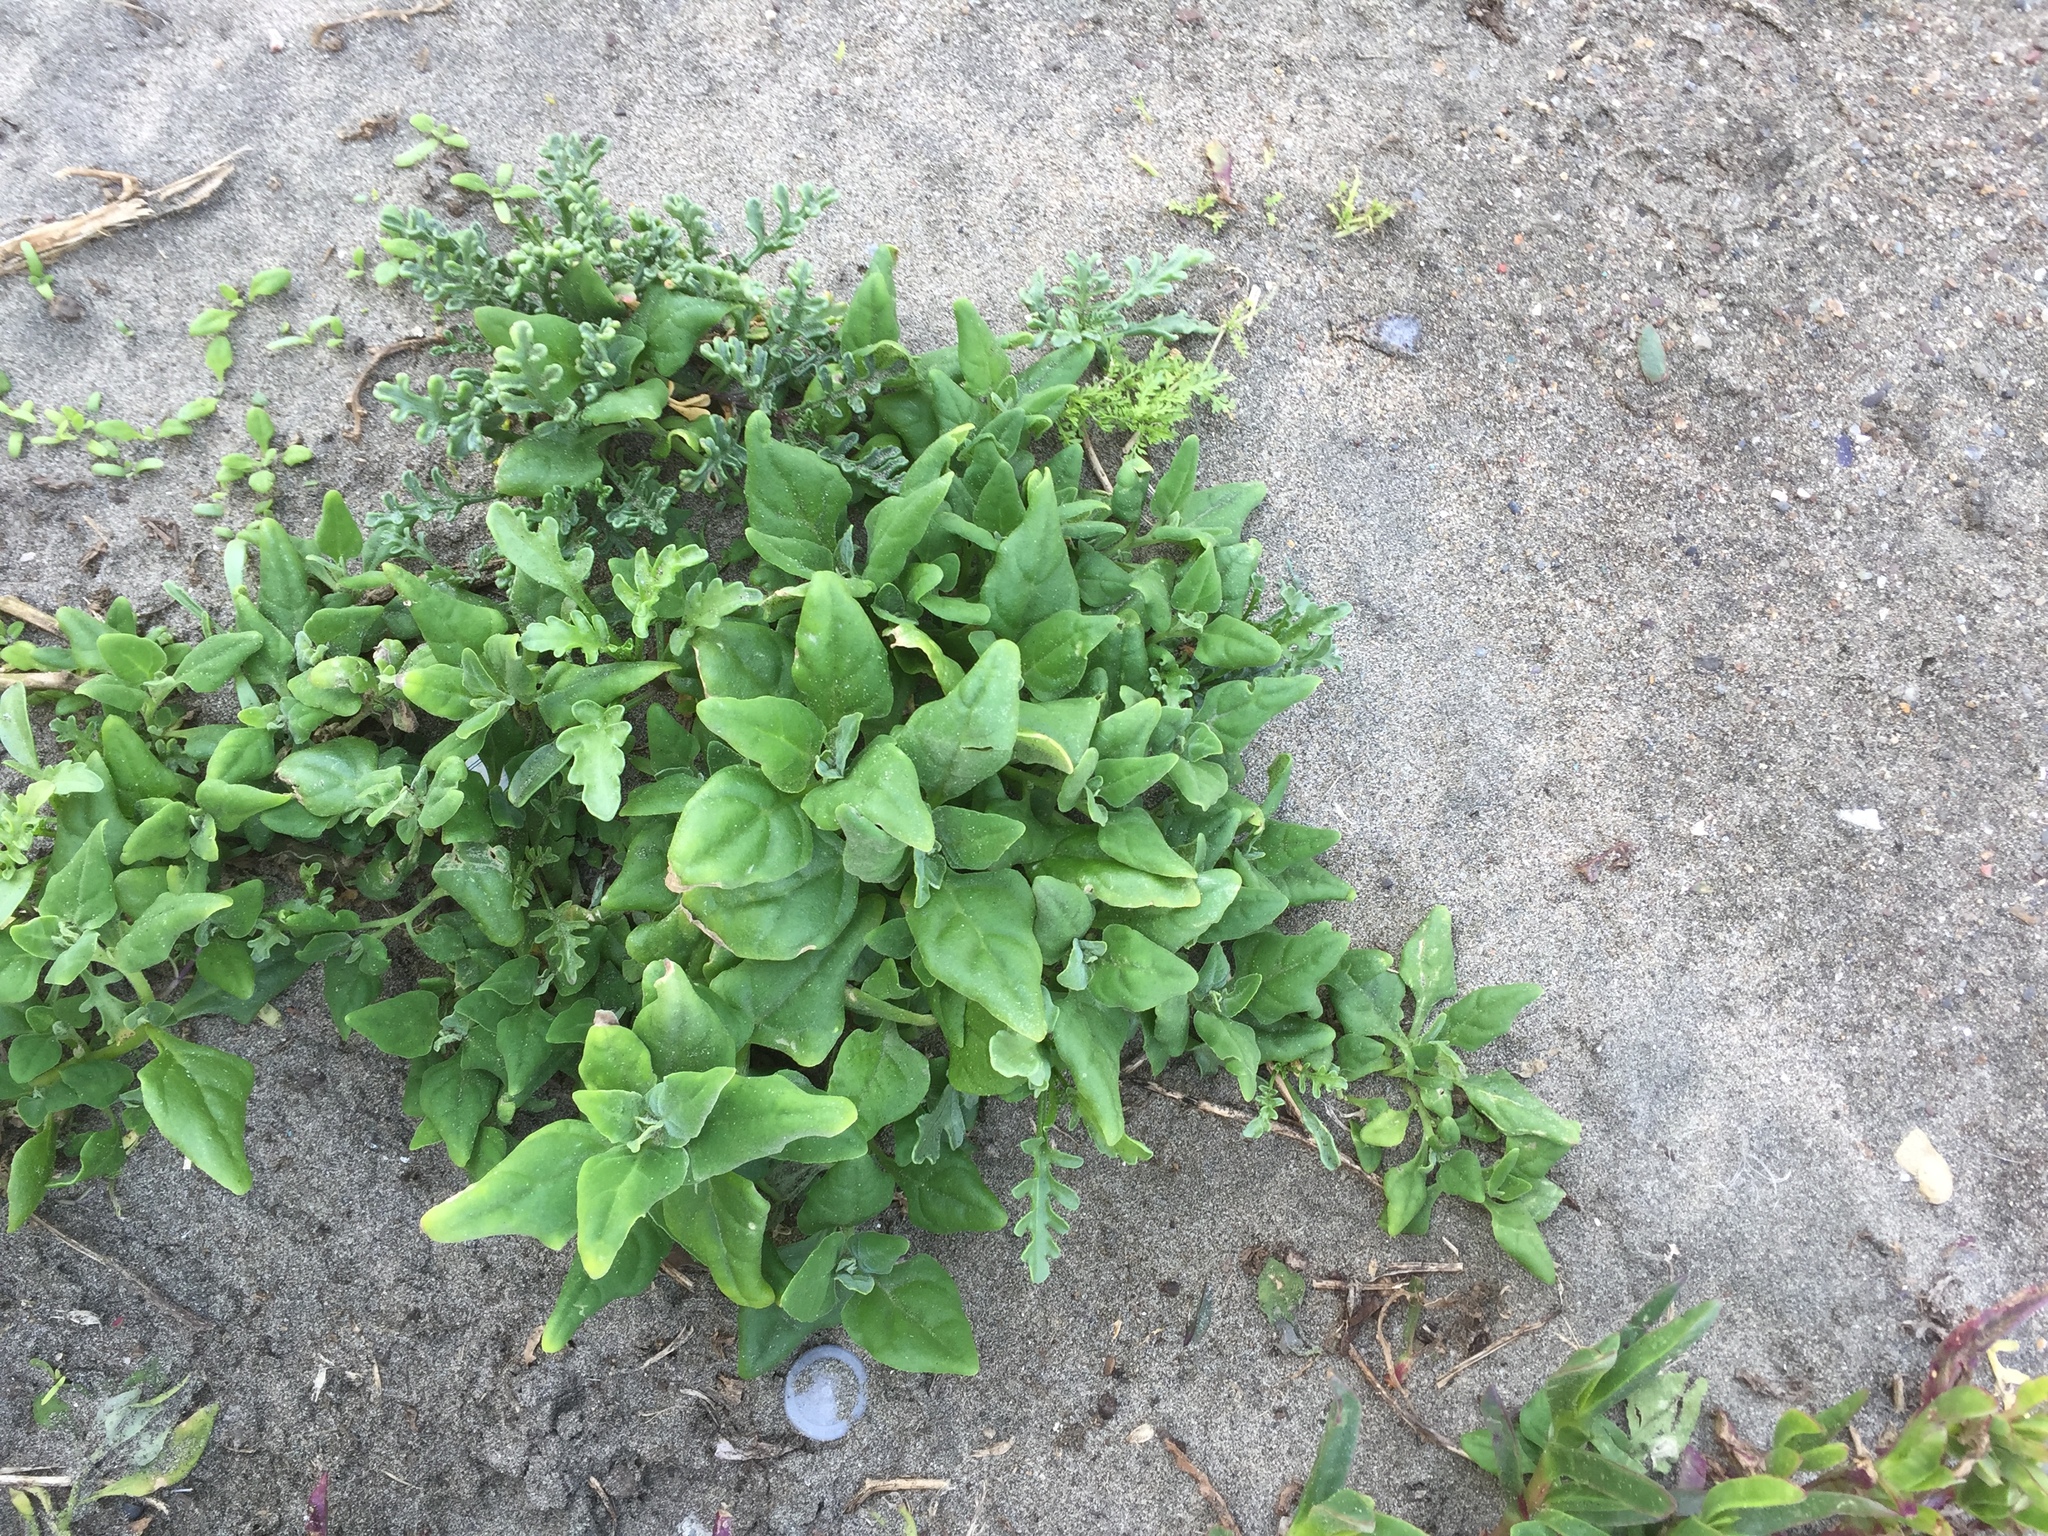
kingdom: Plantae
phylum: Tracheophyta
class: Magnoliopsida
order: Caryophyllales
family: Aizoaceae
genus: Tetragonia
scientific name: Tetragonia tetragonoides
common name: New zealand-spinach
